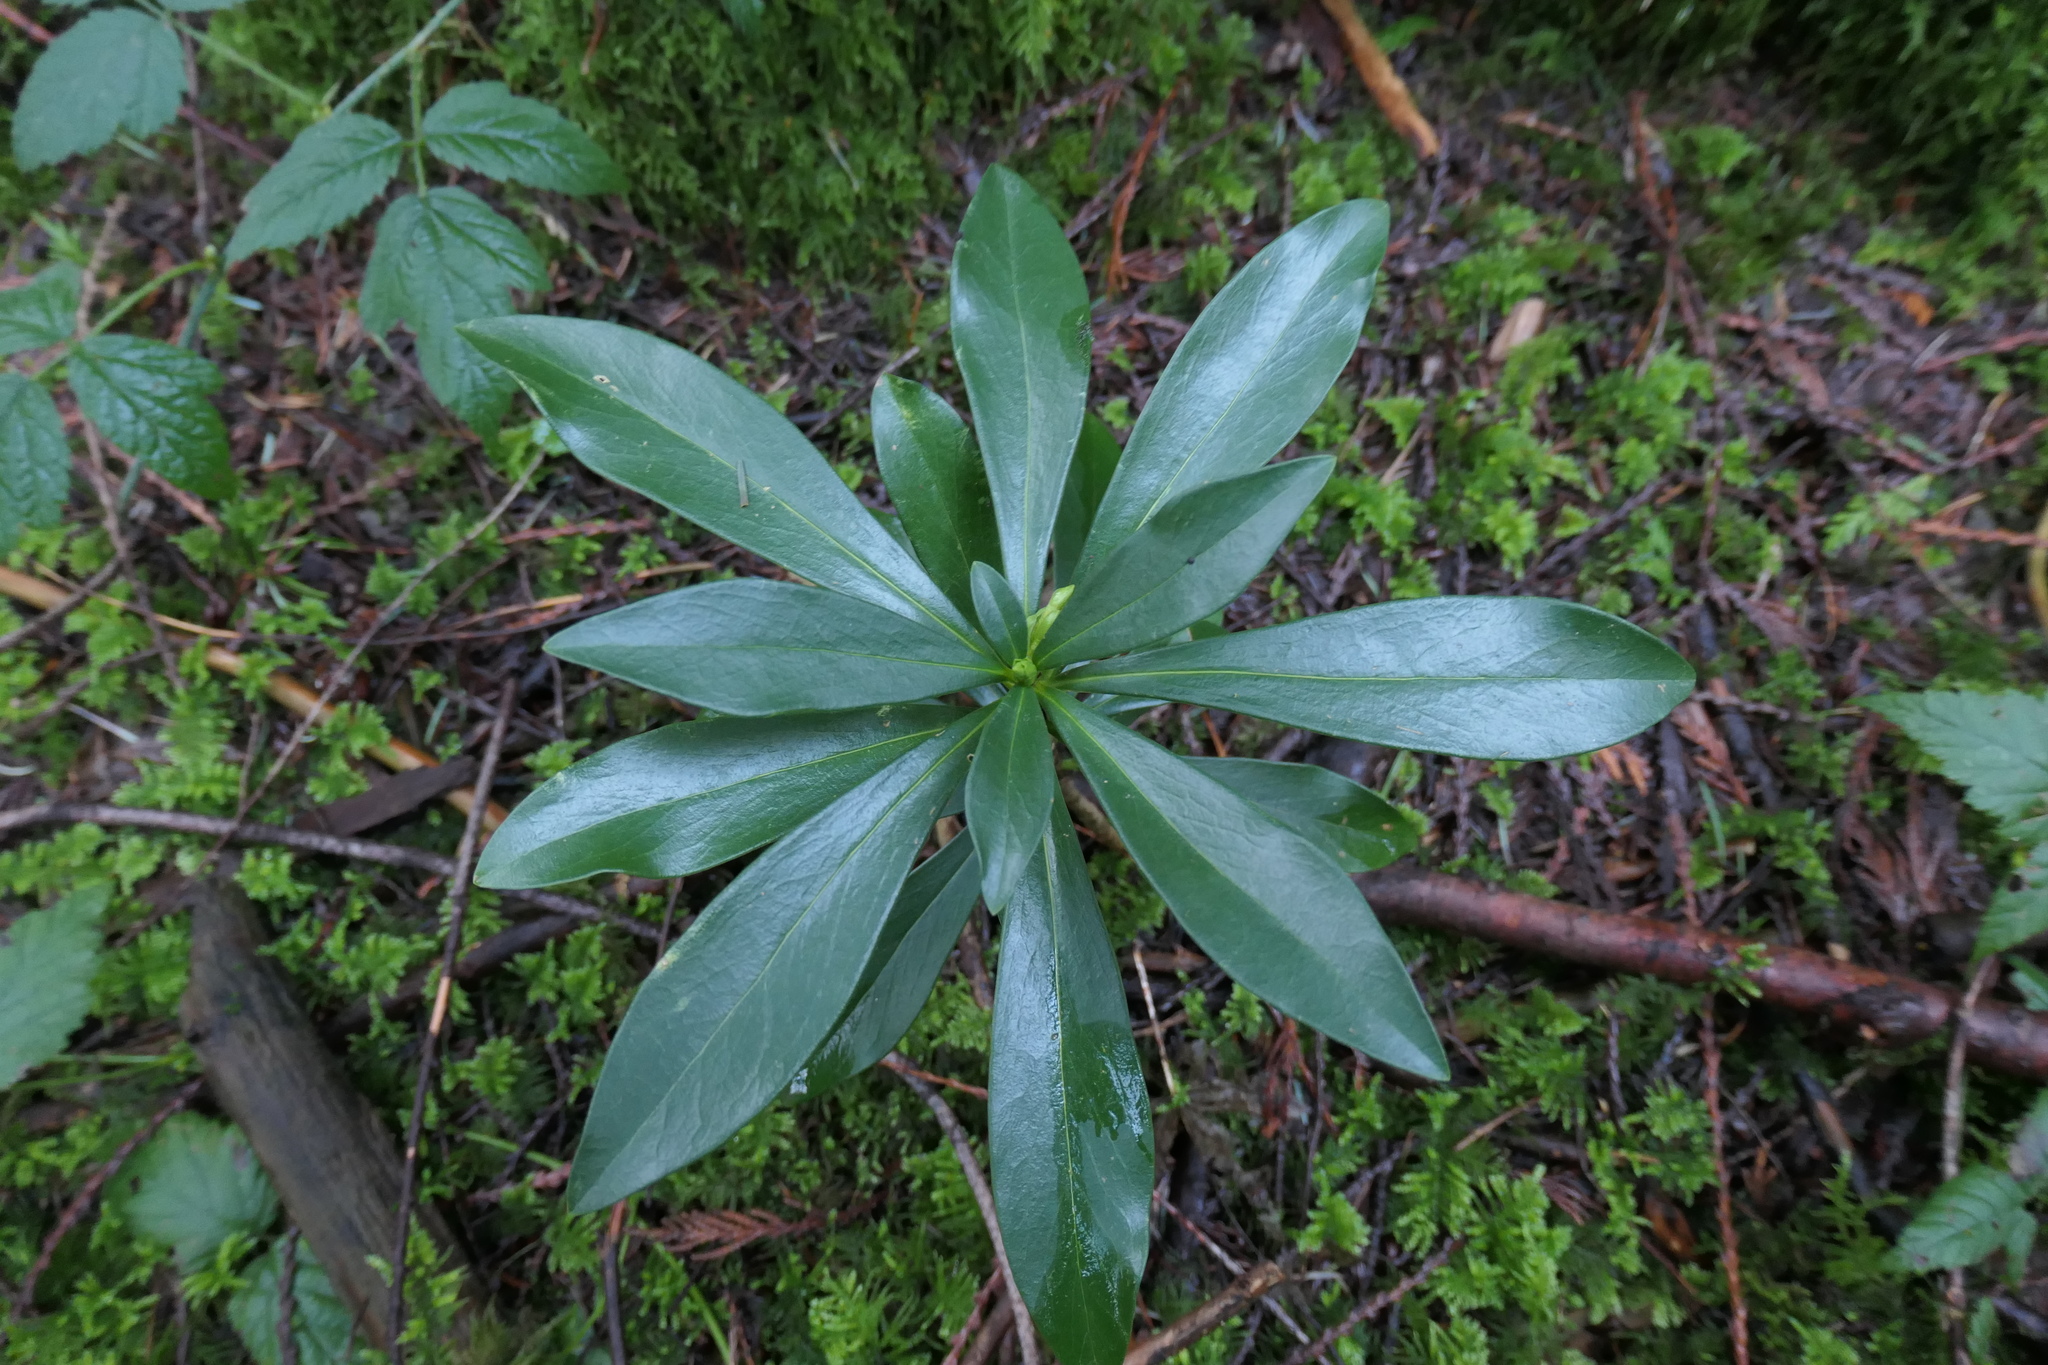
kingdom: Plantae
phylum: Tracheophyta
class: Magnoliopsida
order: Malvales
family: Thymelaeaceae
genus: Daphne
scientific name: Daphne laureola
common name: Spurge-laurel
